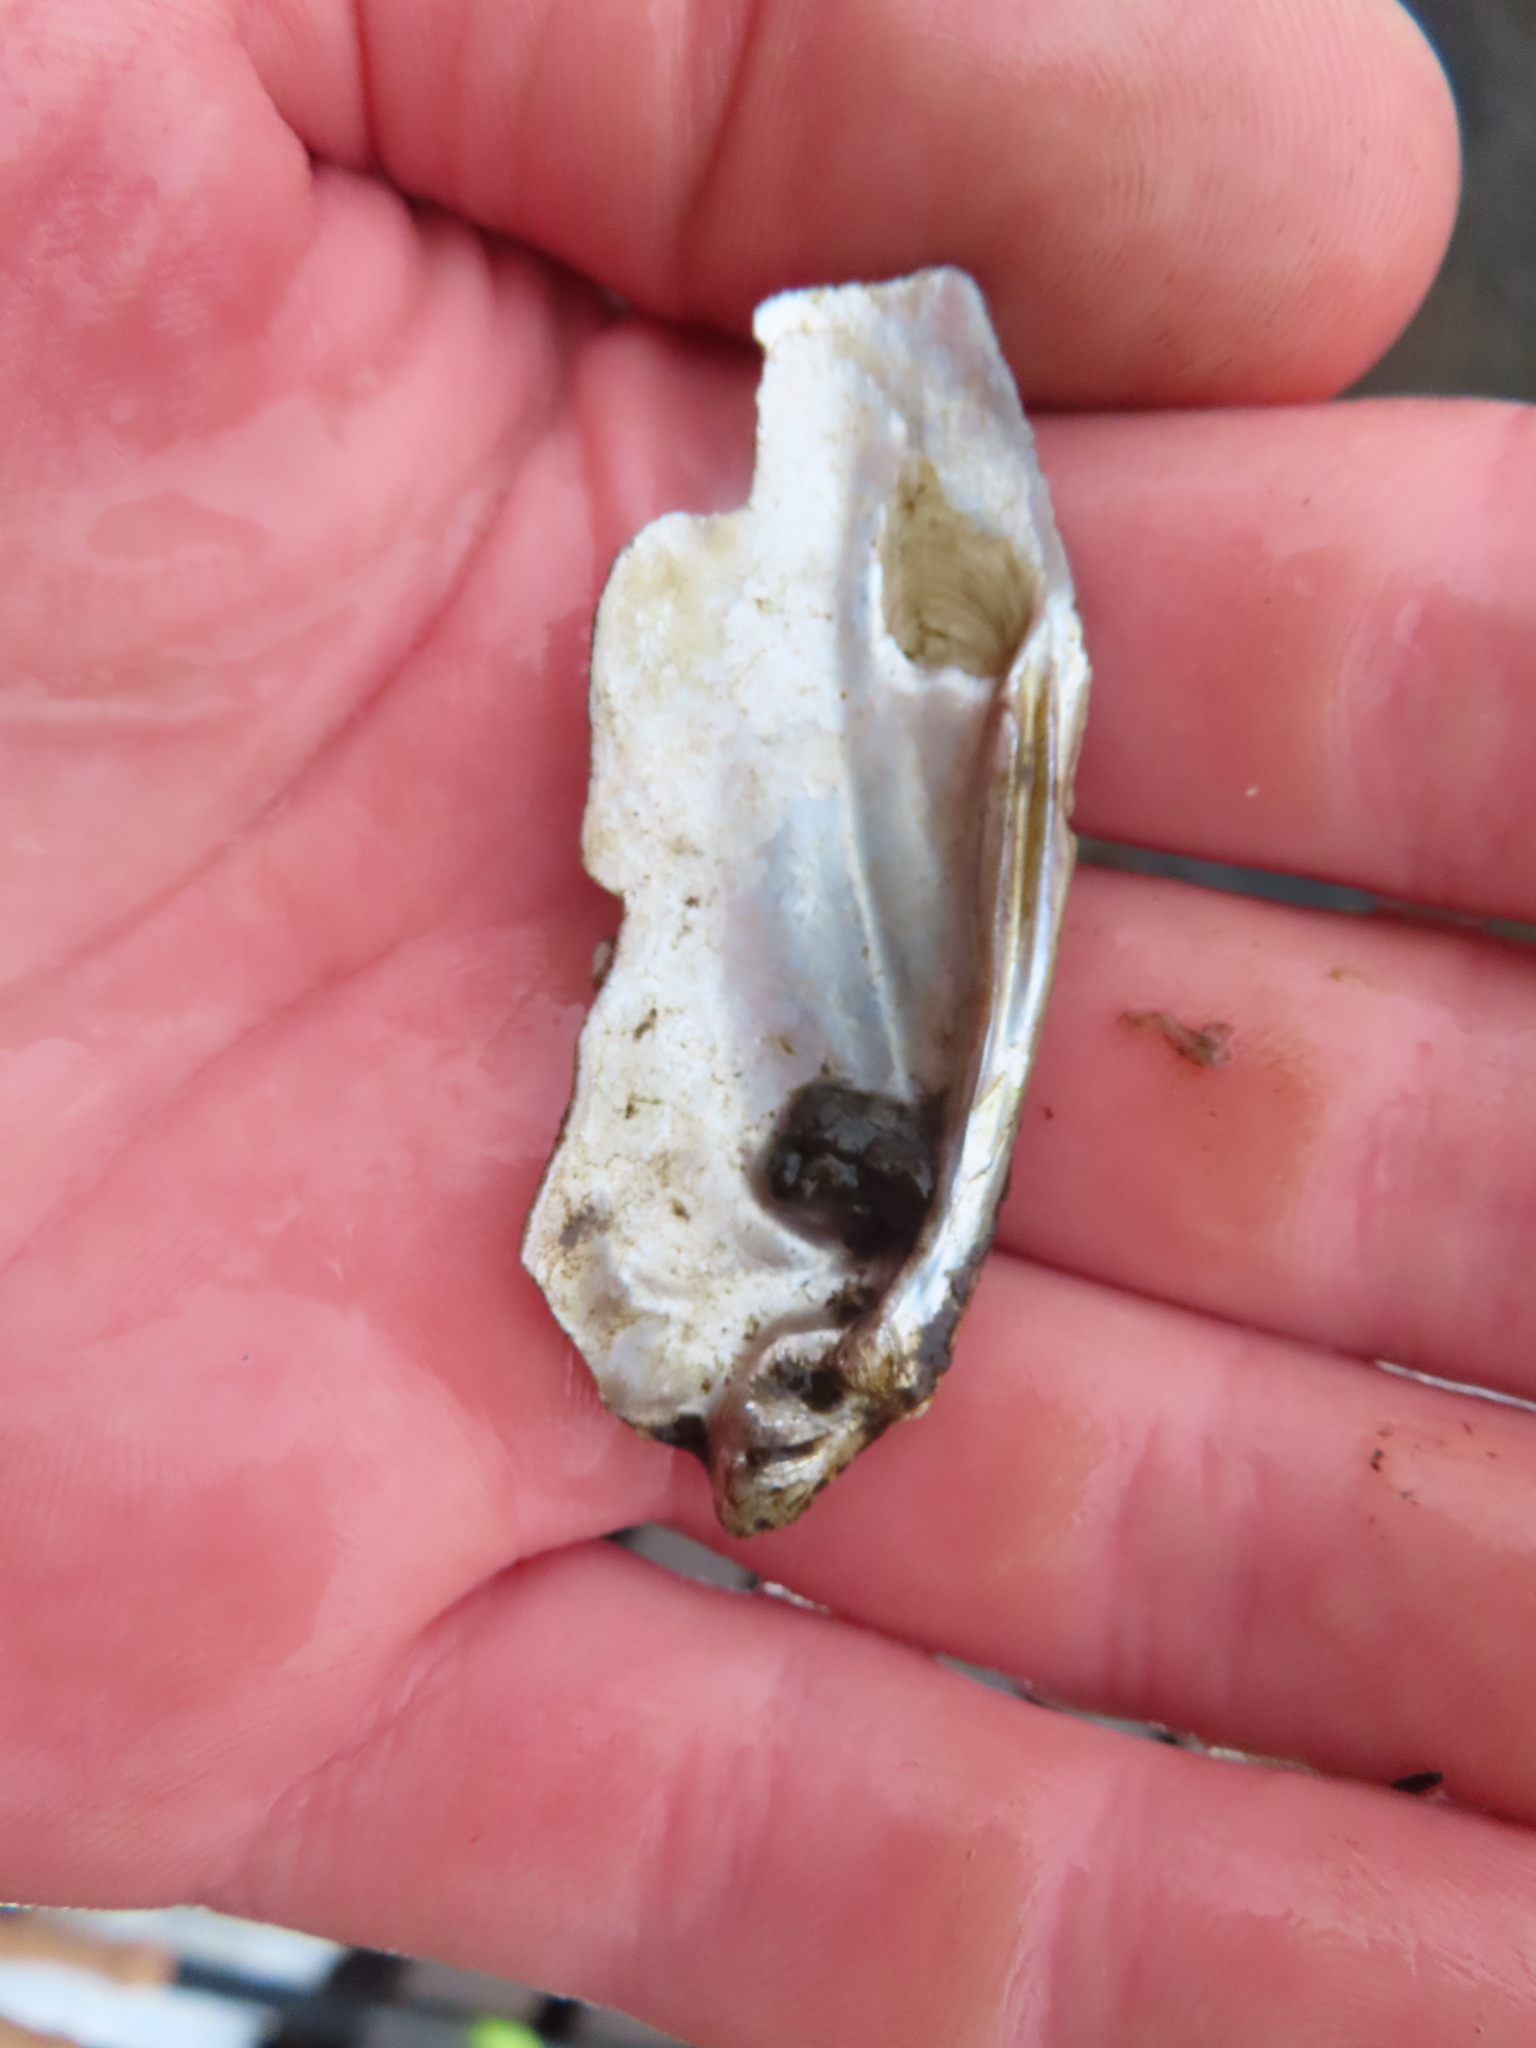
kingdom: Animalia
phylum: Mollusca
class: Bivalvia
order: Unionida
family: Unionidae
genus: Eurynia
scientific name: Eurynia dilatata
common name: Spike
